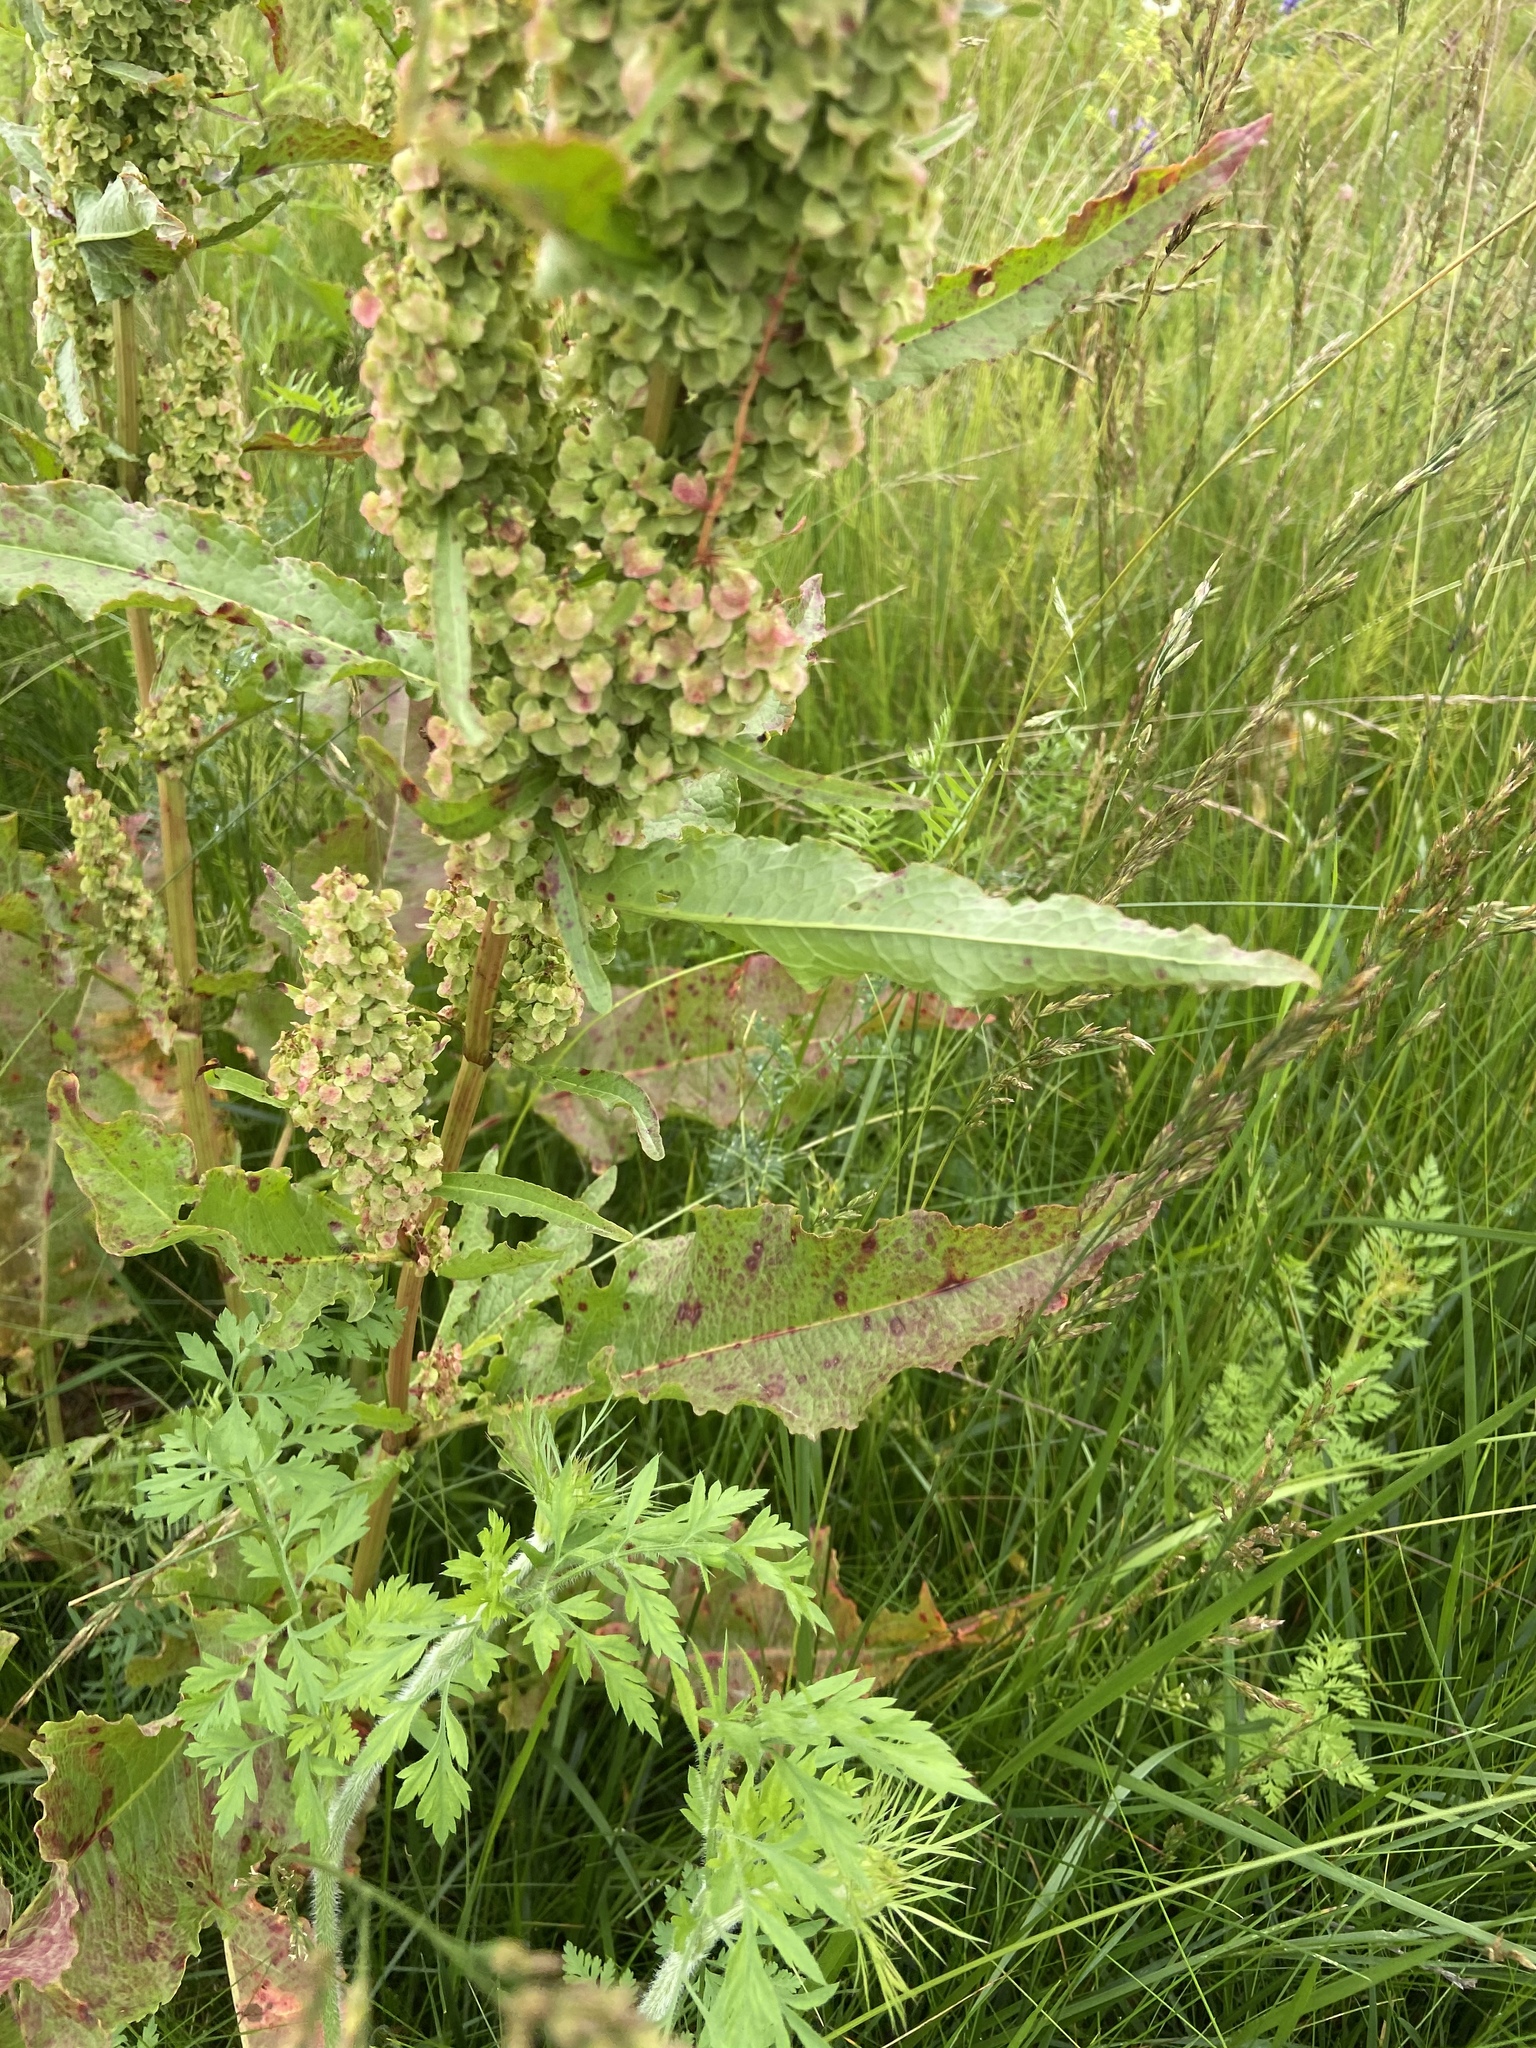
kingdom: Plantae
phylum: Tracheophyta
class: Magnoliopsida
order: Caryophyllales
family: Polygonaceae
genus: Rumex
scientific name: Rumex crispus
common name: Curled dock
